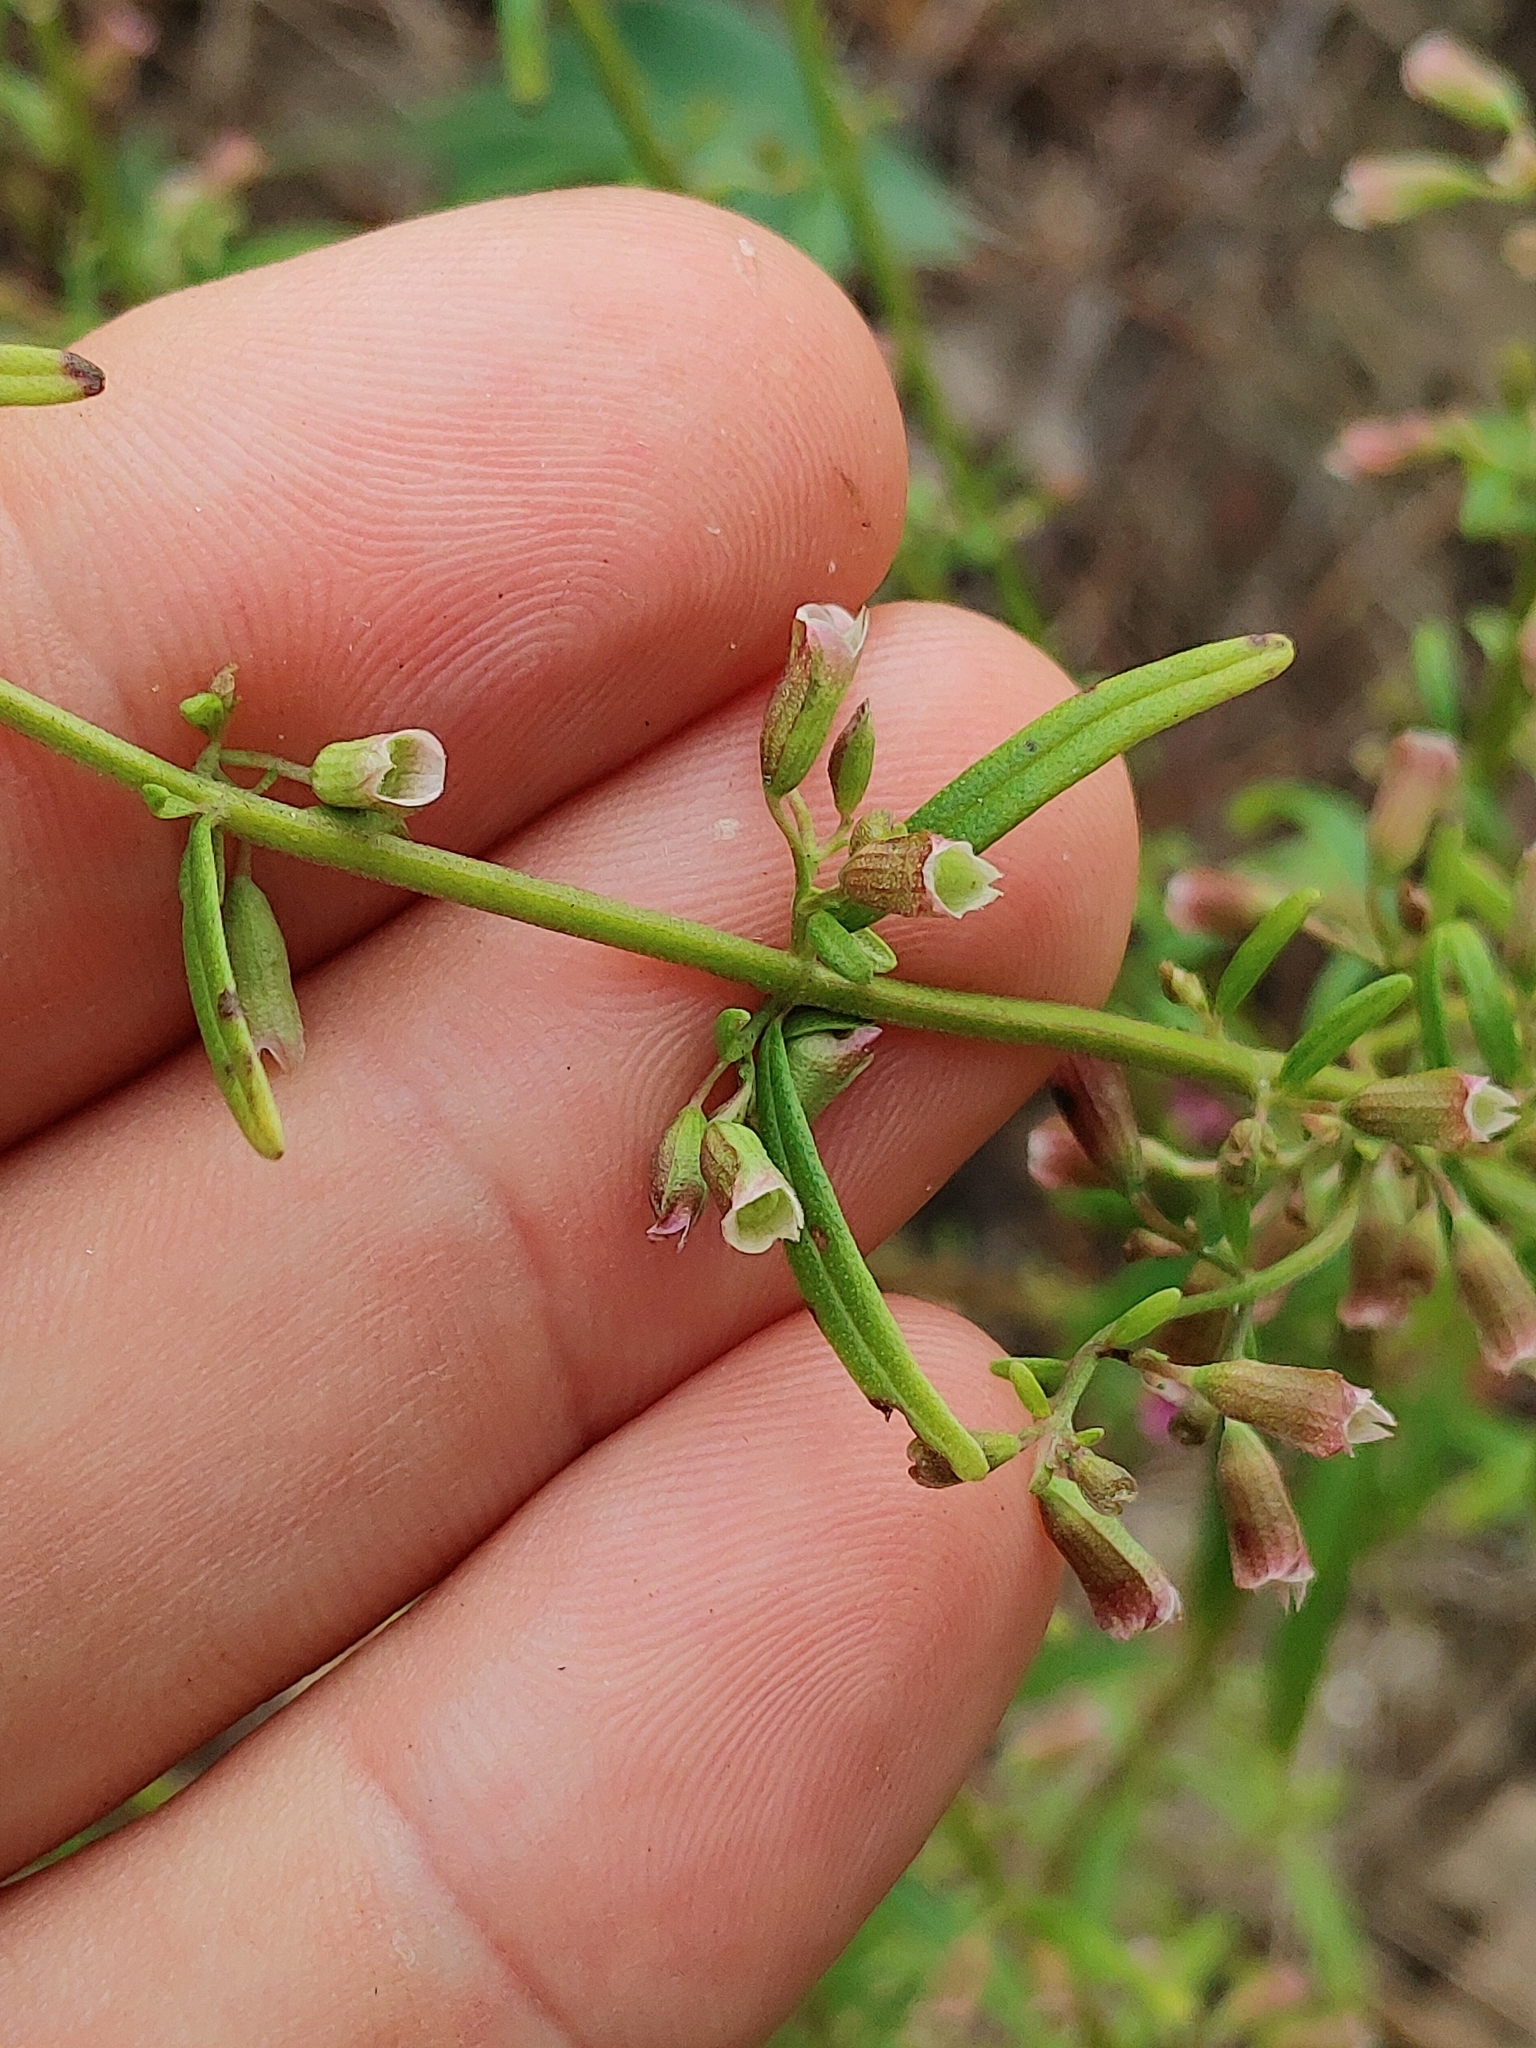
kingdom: Plantae
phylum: Tracheophyta
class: Magnoliopsida
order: Lamiales
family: Lamiaceae
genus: Dicerandra
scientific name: Dicerandra linearifolia
